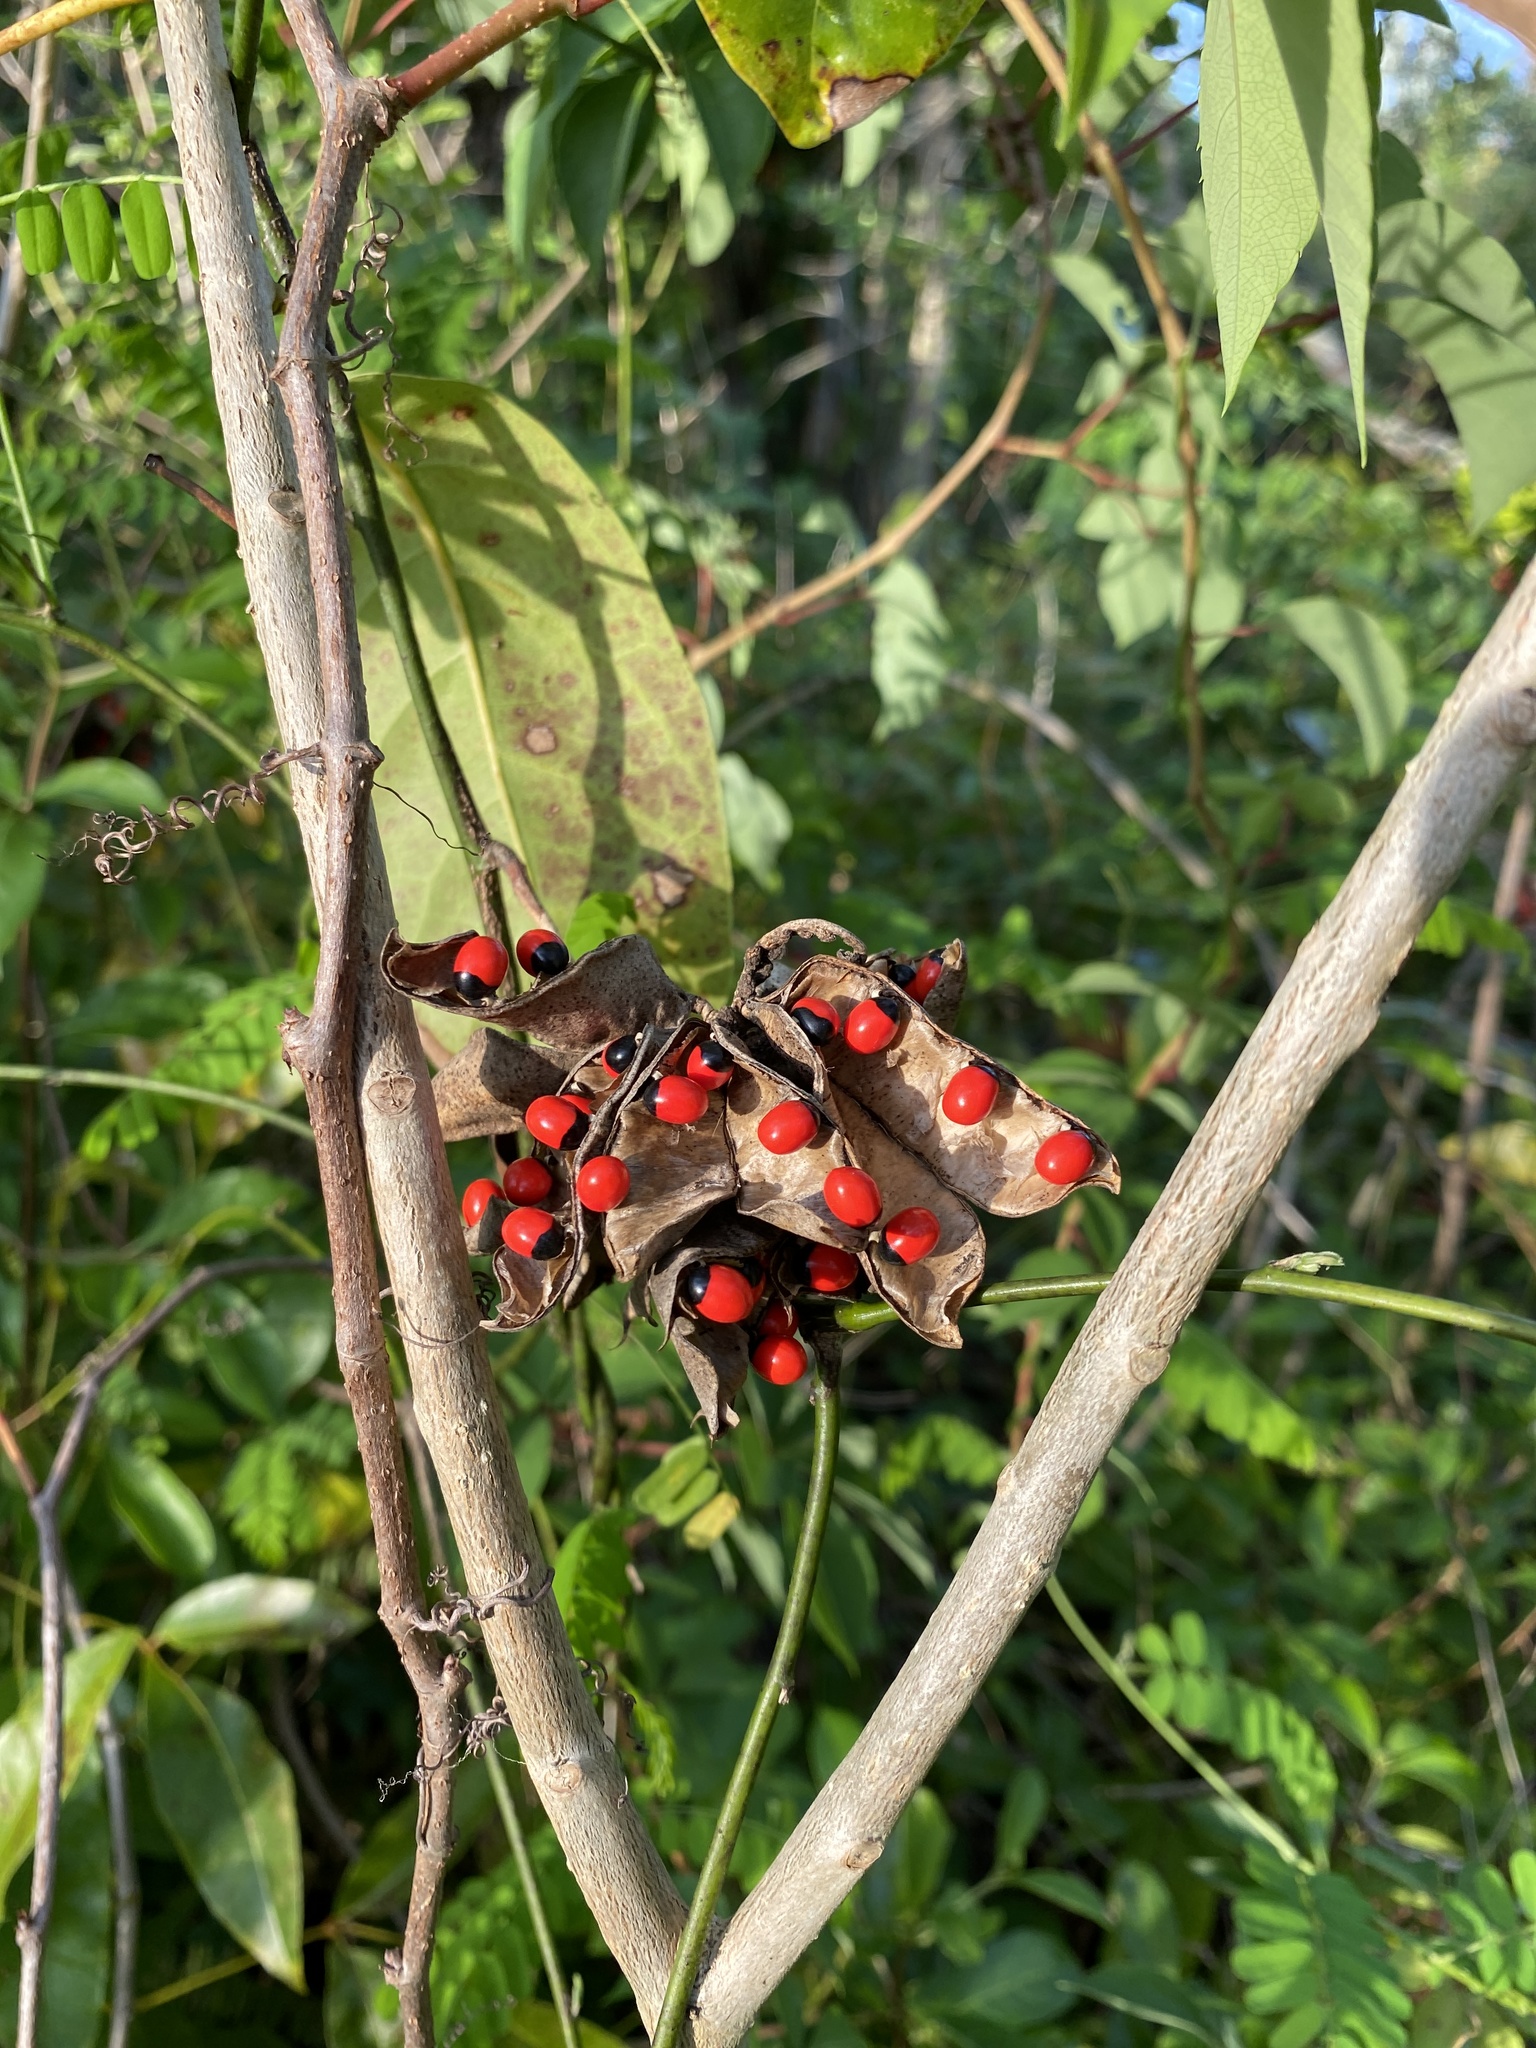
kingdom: Plantae
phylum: Tracheophyta
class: Magnoliopsida
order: Fabales
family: Fabaceae
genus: Abrus
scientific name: Abrus precatorius
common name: Rosarypea
